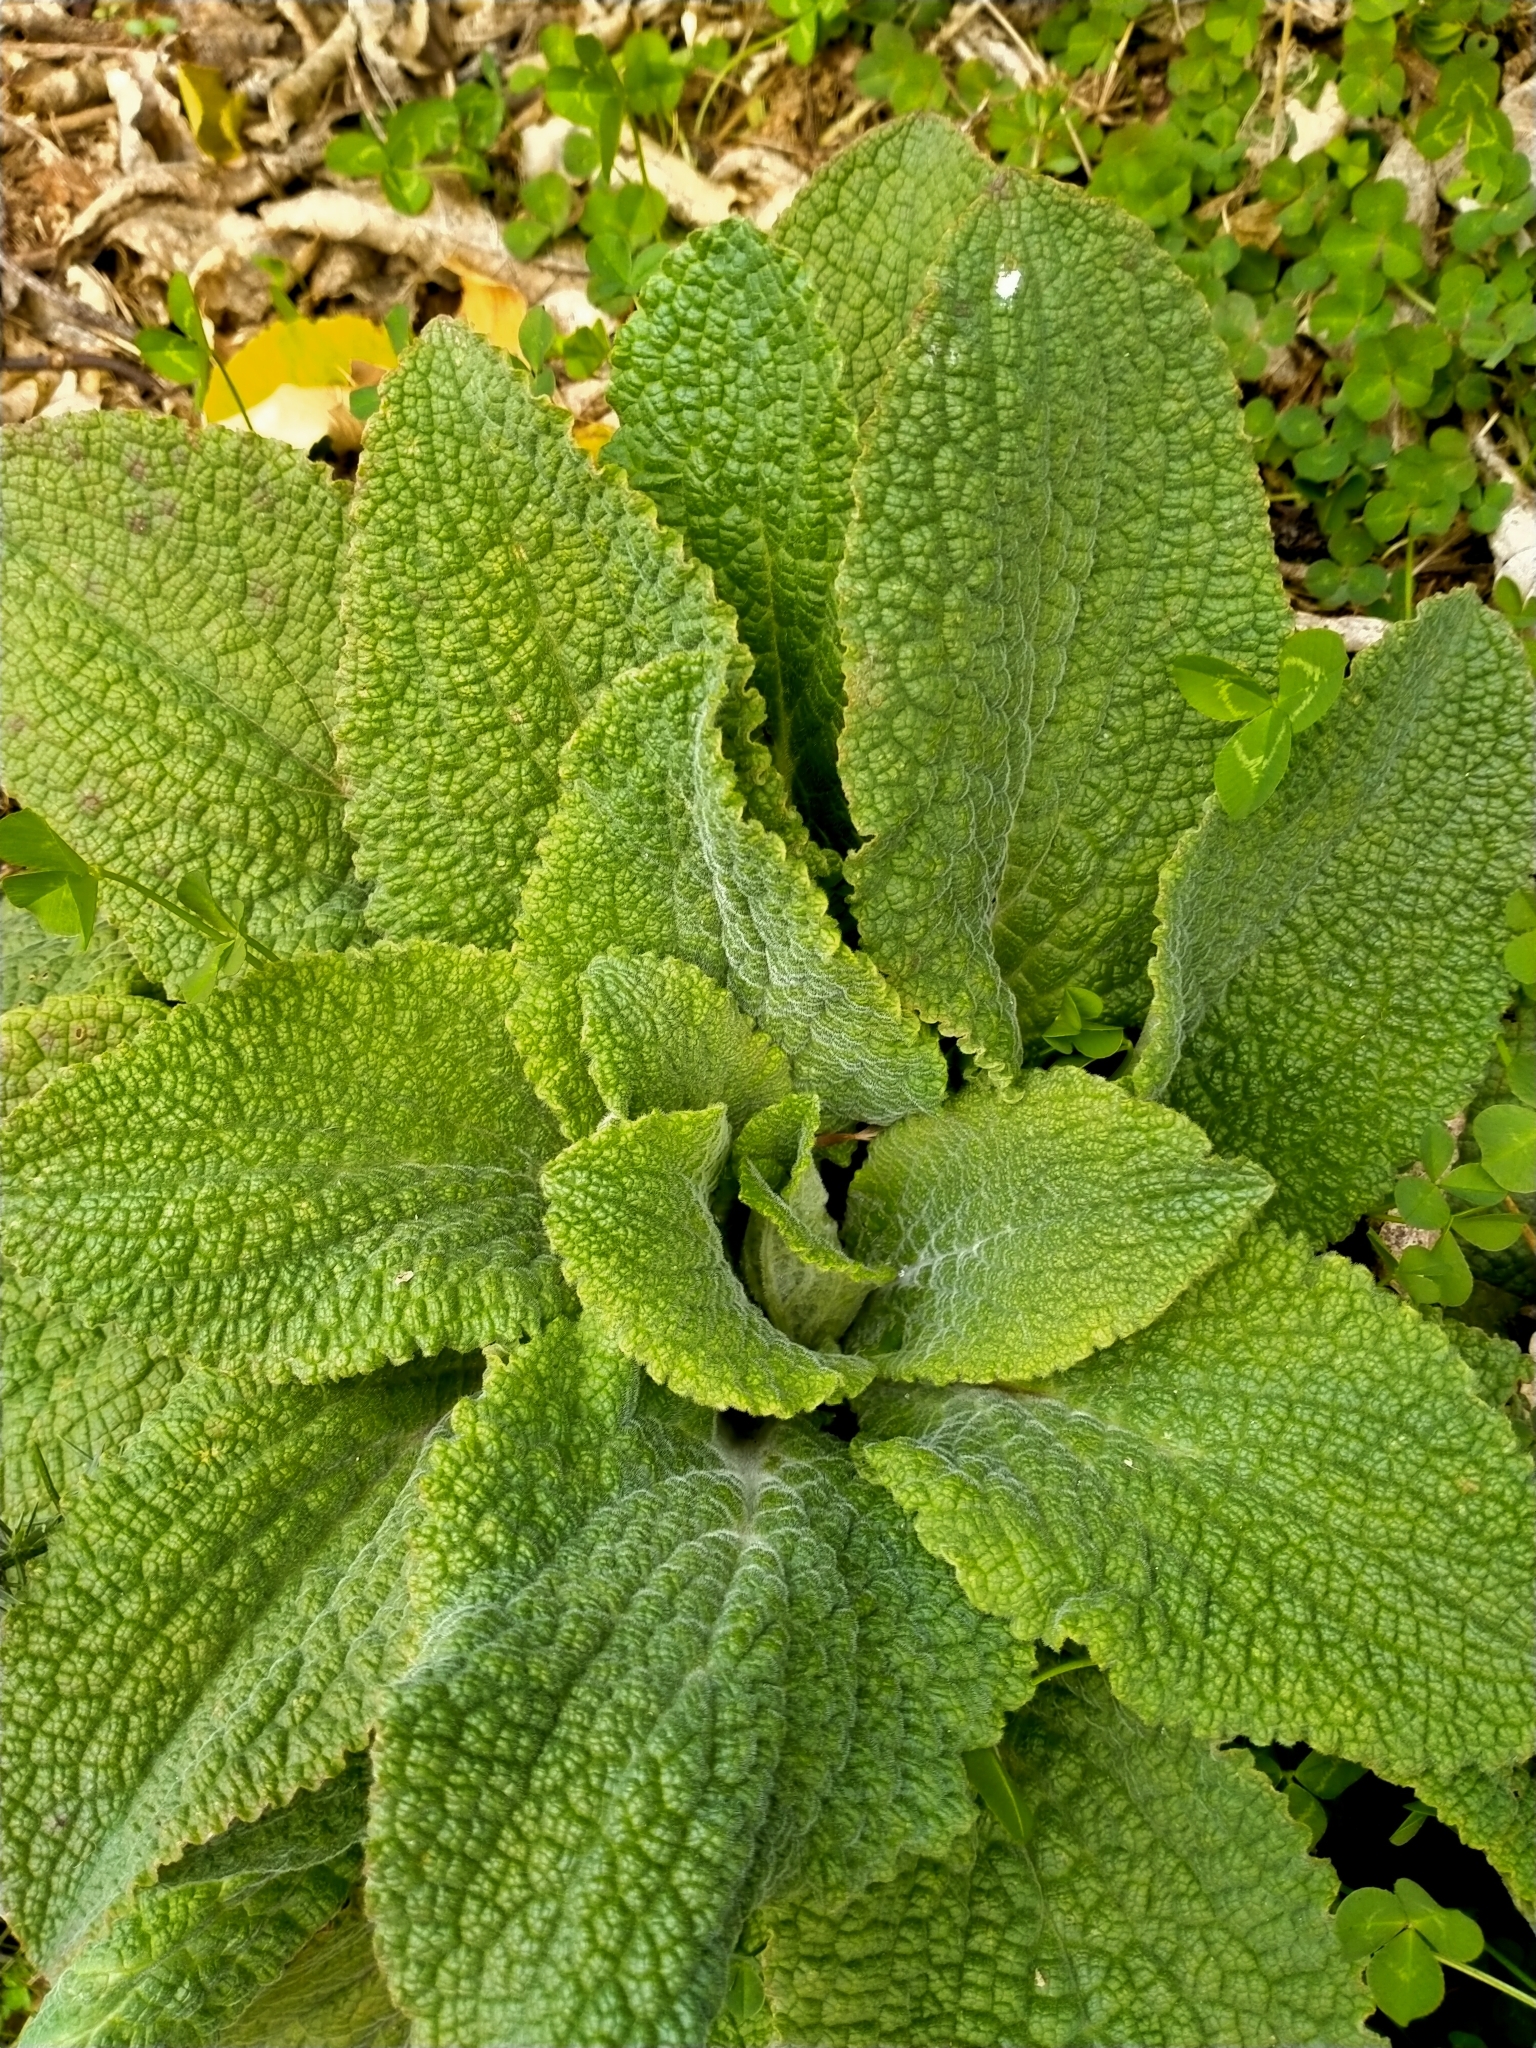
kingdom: Plantae
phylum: Tracheophyta
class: Magnoliopsida
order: Lamiales
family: Plantaginaceae
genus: Digitalis
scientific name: Digitalis purpurea
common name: Foxglove
